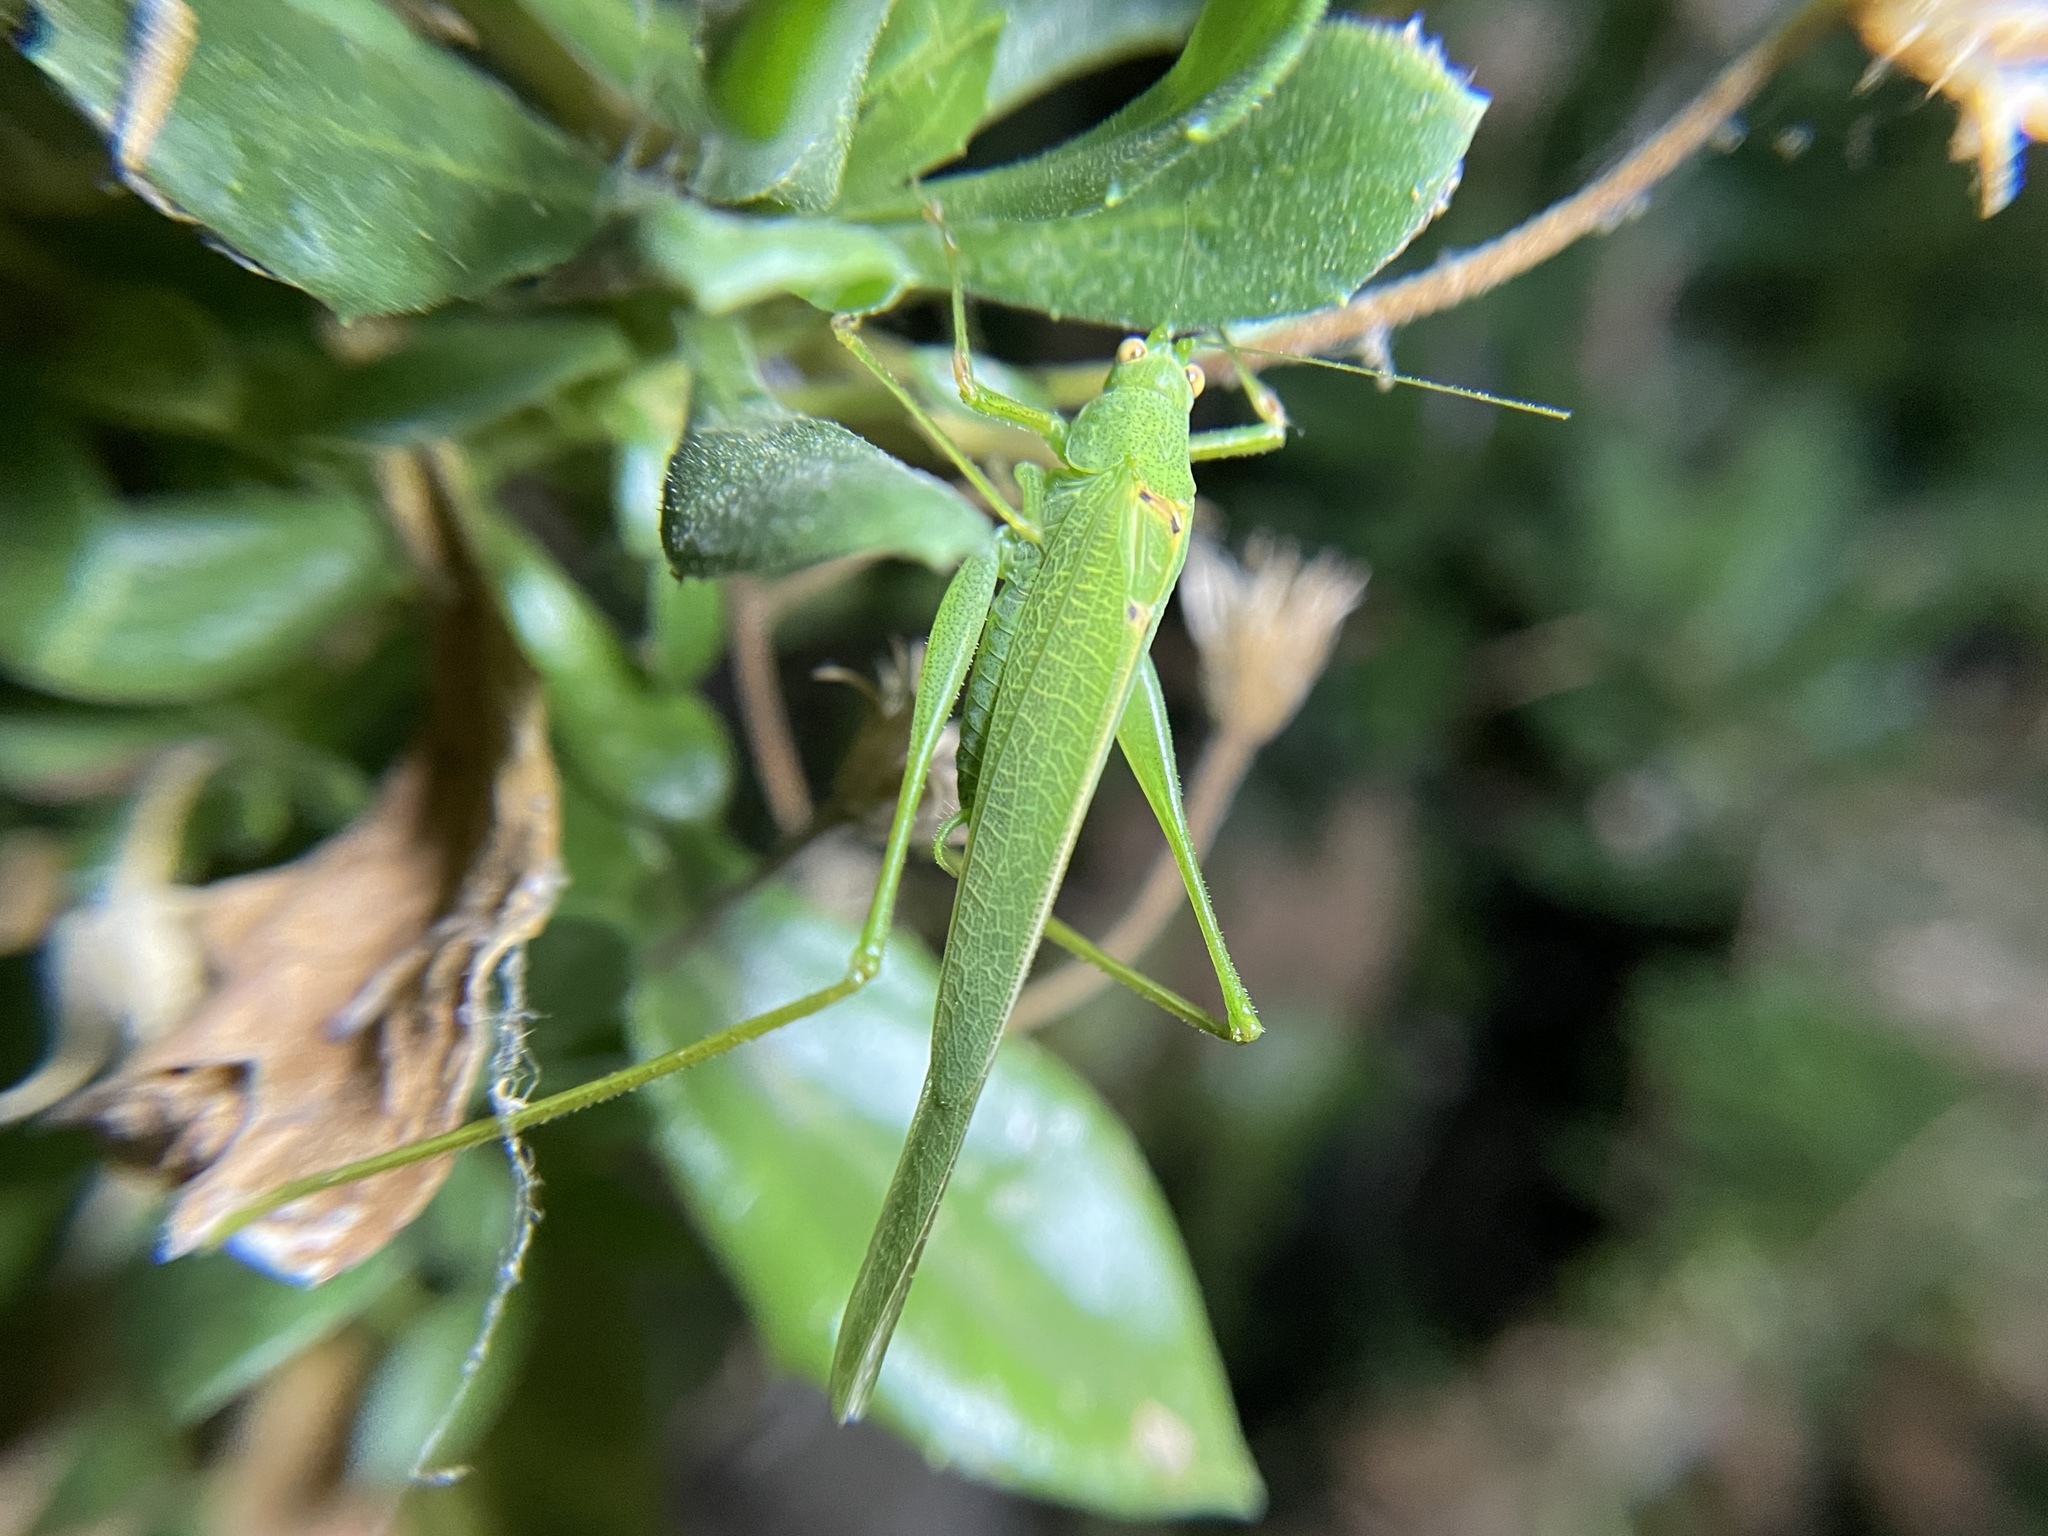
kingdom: Animalia
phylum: Arthropoda
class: Insecta
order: Orthoptera
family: Tettigoniidae
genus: Phaneroptera
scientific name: Phaneroptera nana
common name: Southern sickle bush-cricket
